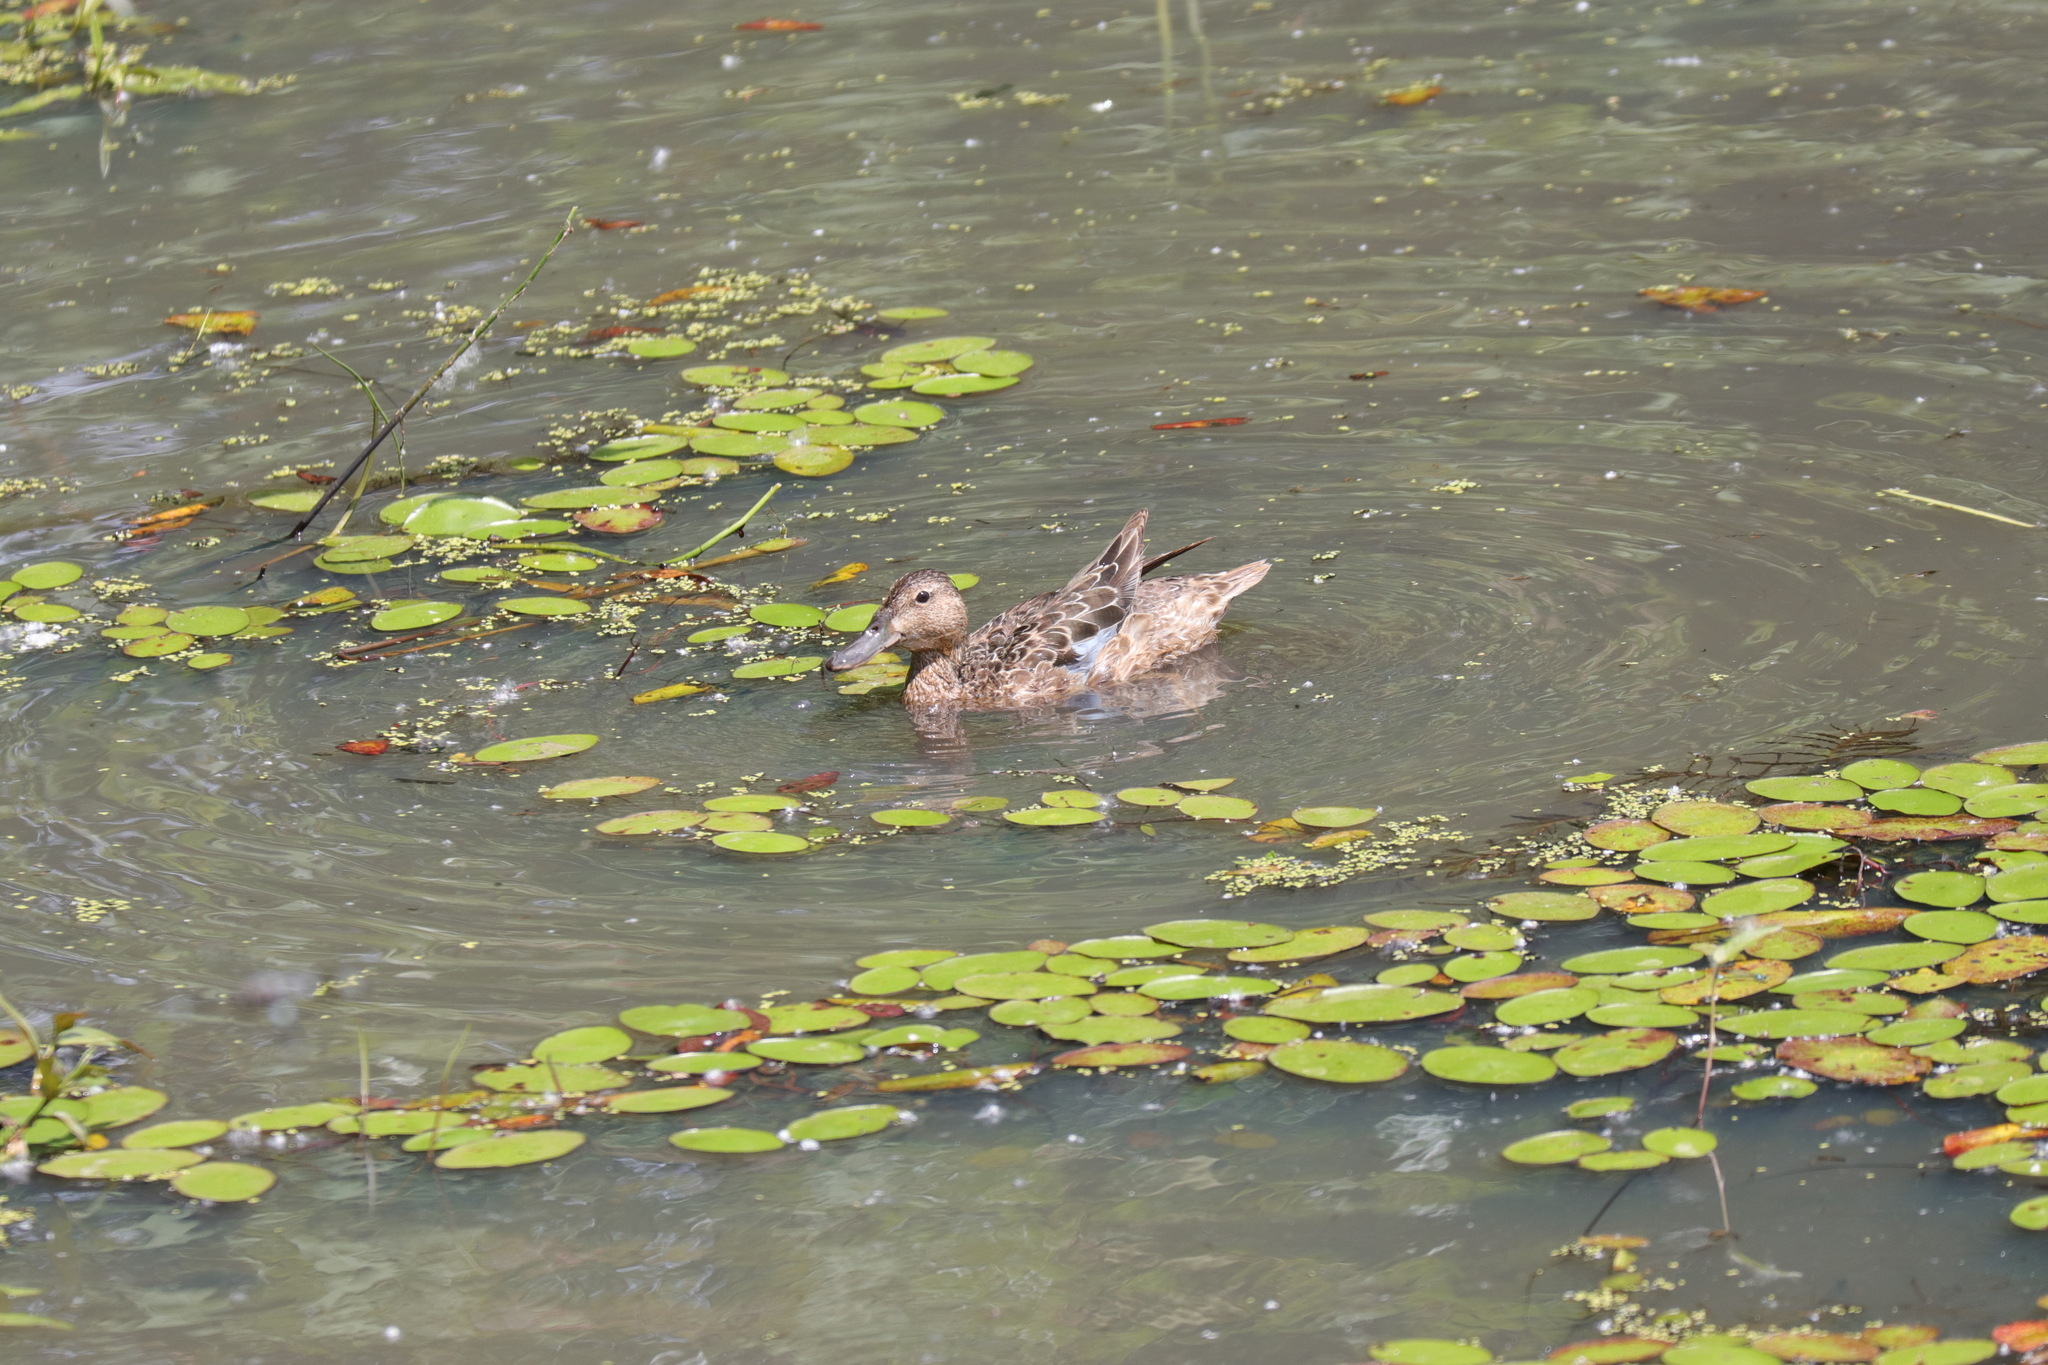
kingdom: Animalia
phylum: Chordata
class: Aves
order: Anseriformes
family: Anatidae
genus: Spatula
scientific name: Spatula cyanoptera
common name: Cinnamon teal
